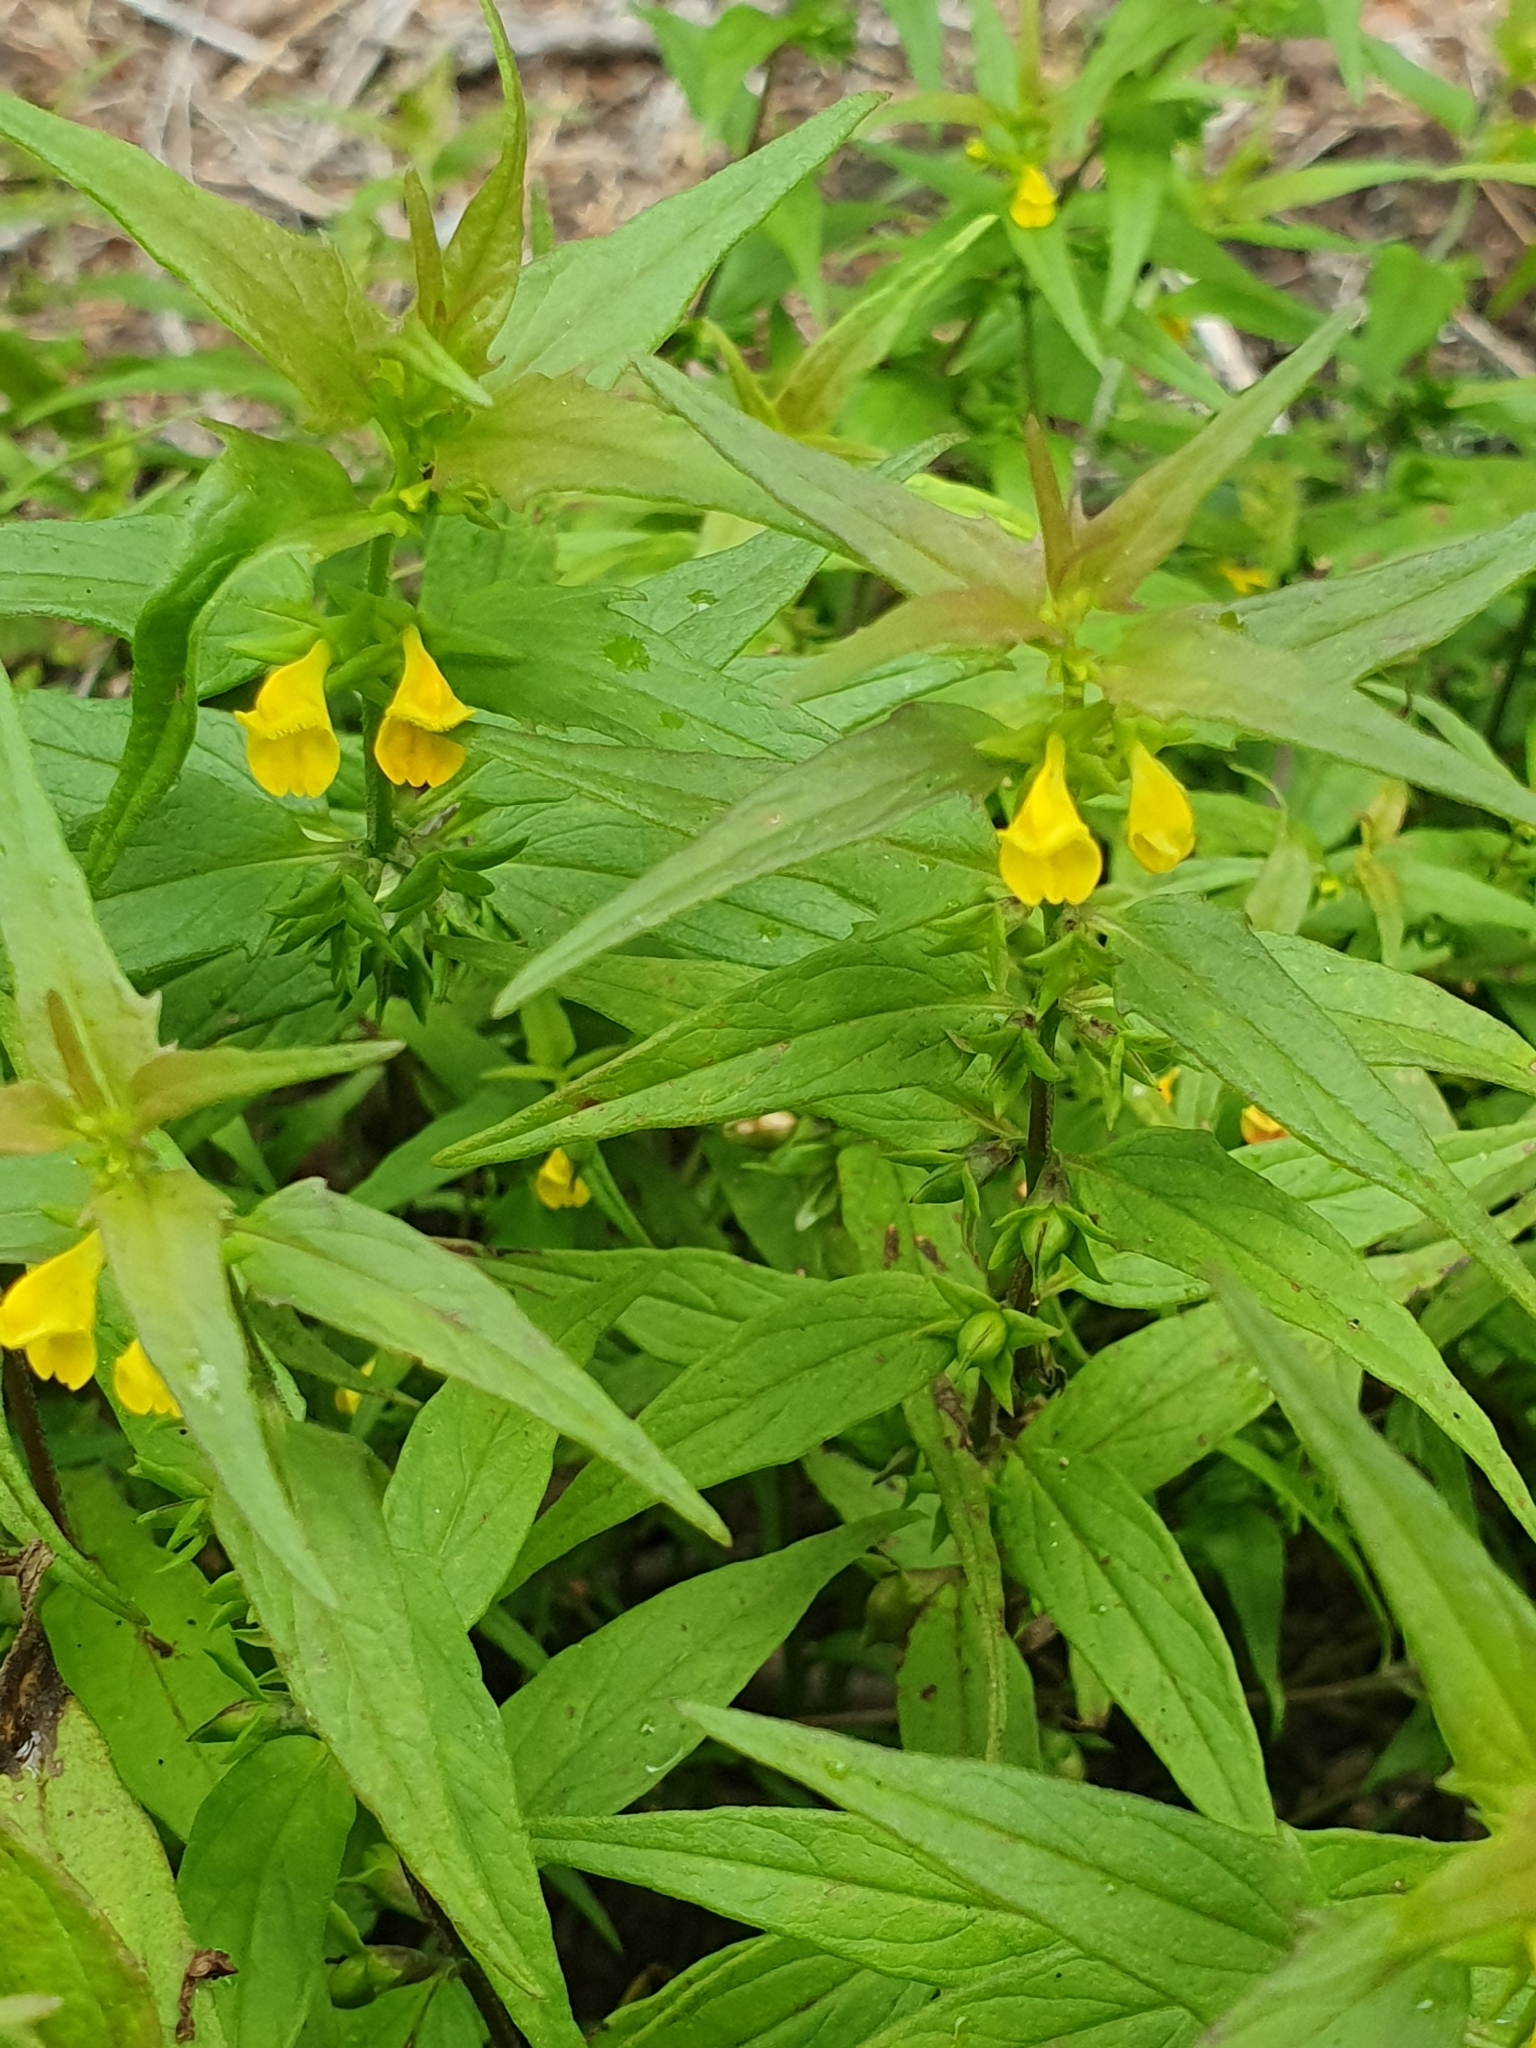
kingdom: Plantae
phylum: Tracheophyta
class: Magnoliopsida
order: Lamiales
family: Orobanchaceae
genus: Melampyrum
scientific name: Melampyrum sylvaticum
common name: Small cow-wheat
